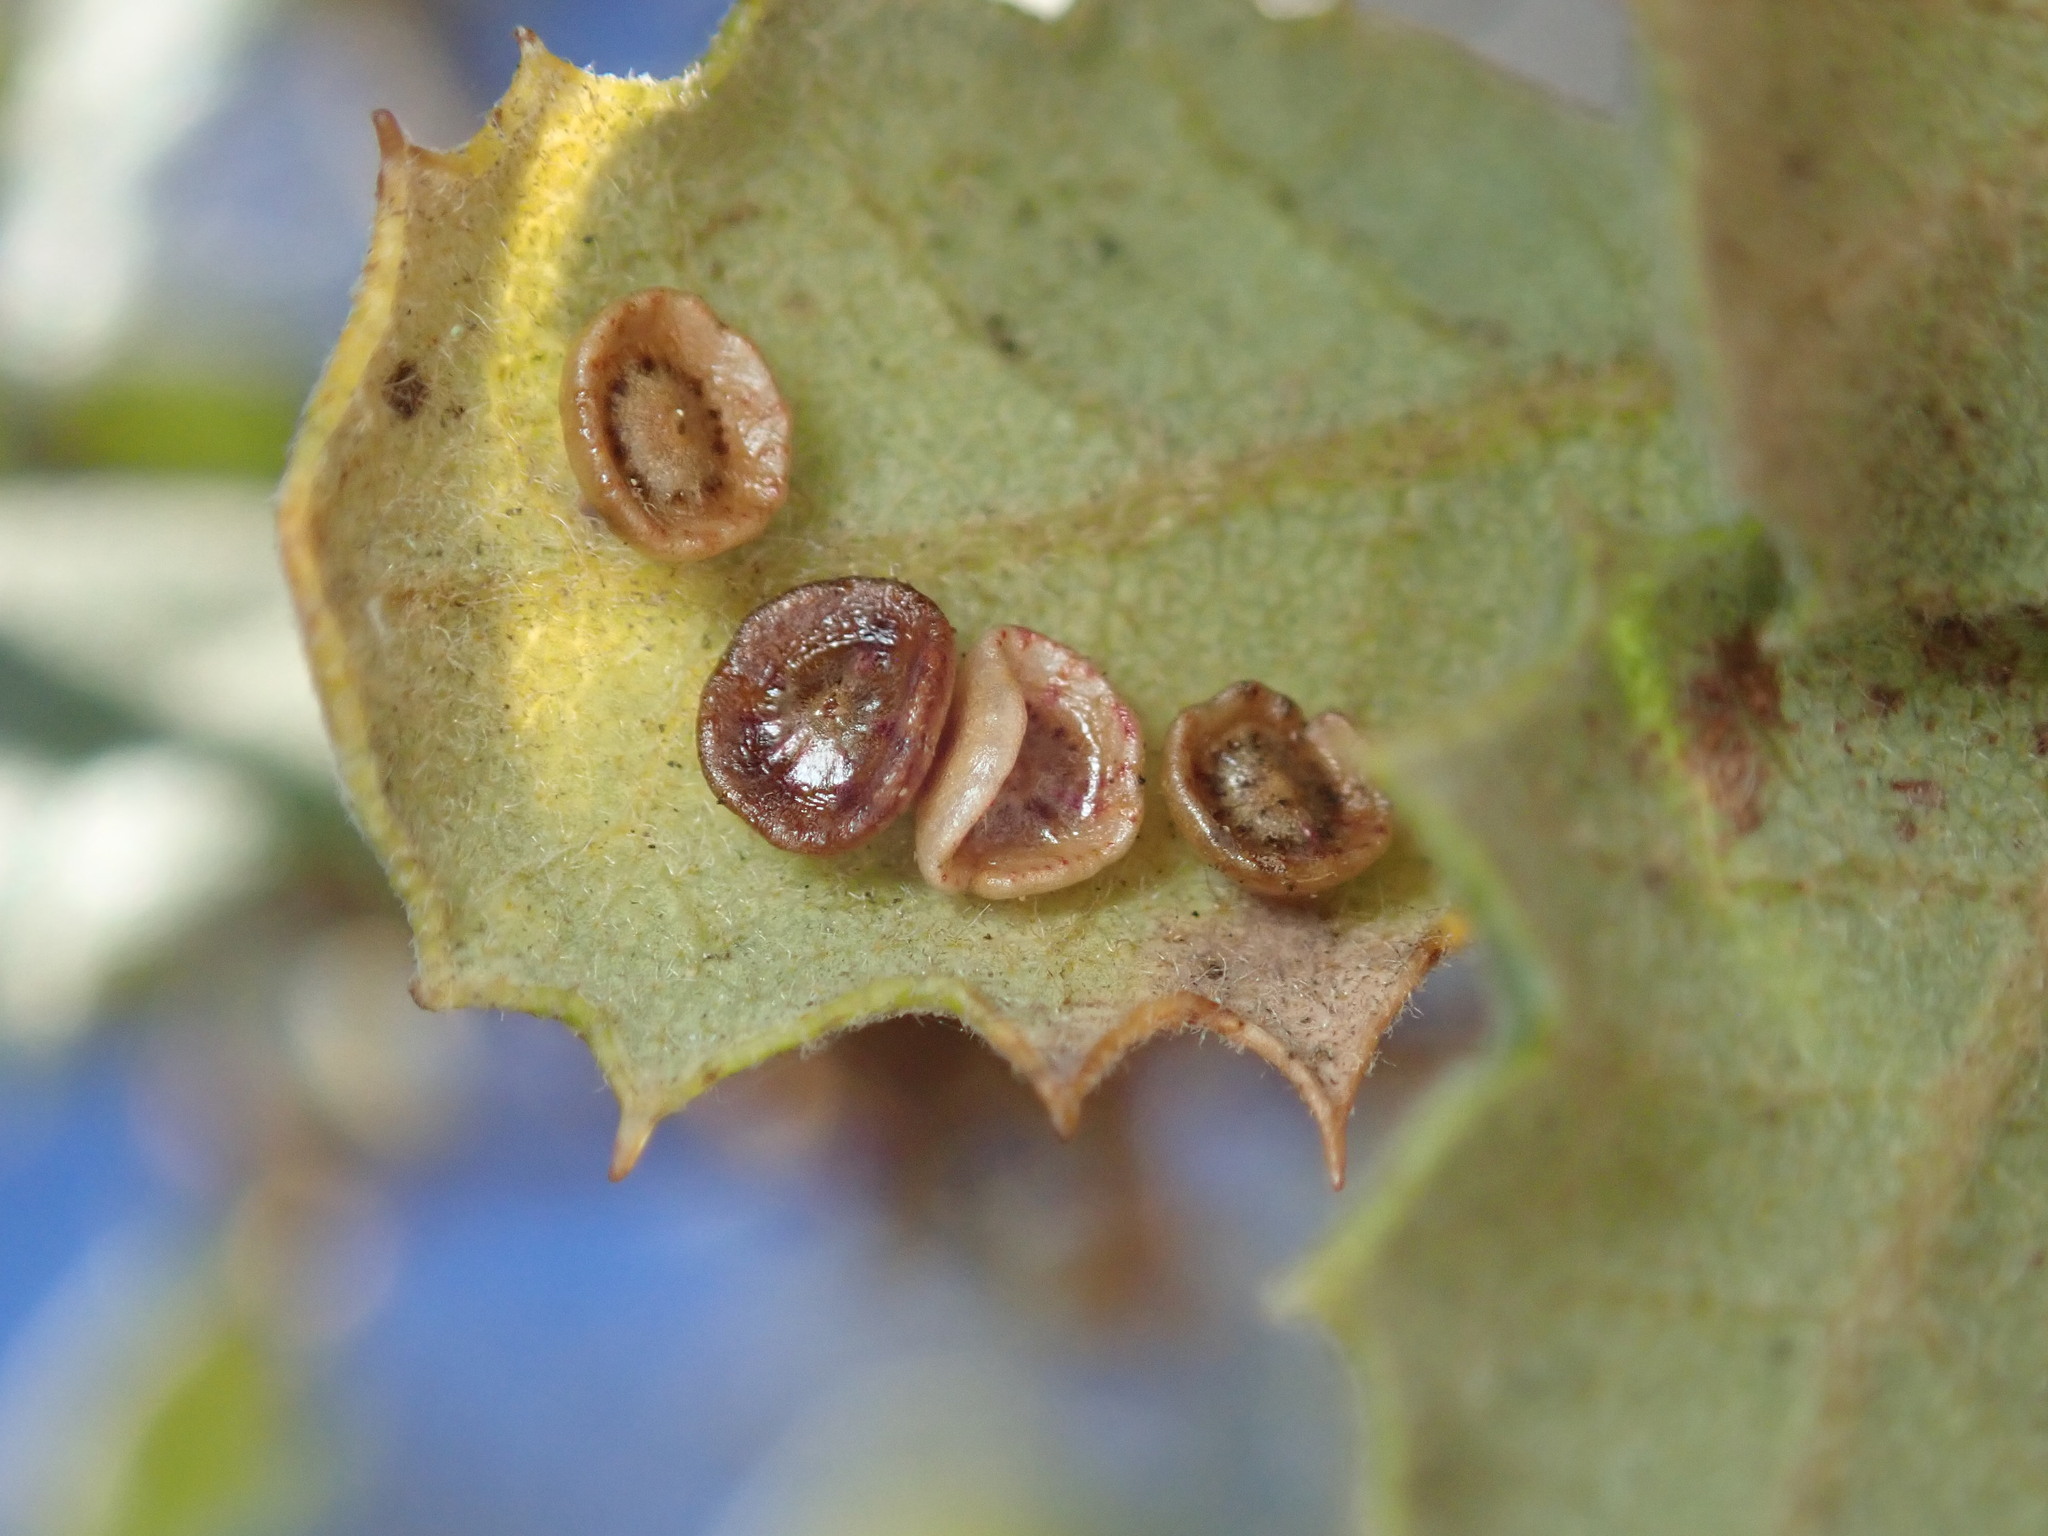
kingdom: Animalia
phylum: Arthropoda
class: Insecta
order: Hymenoptera
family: Cynipidae
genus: Andricus
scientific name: Andricus
